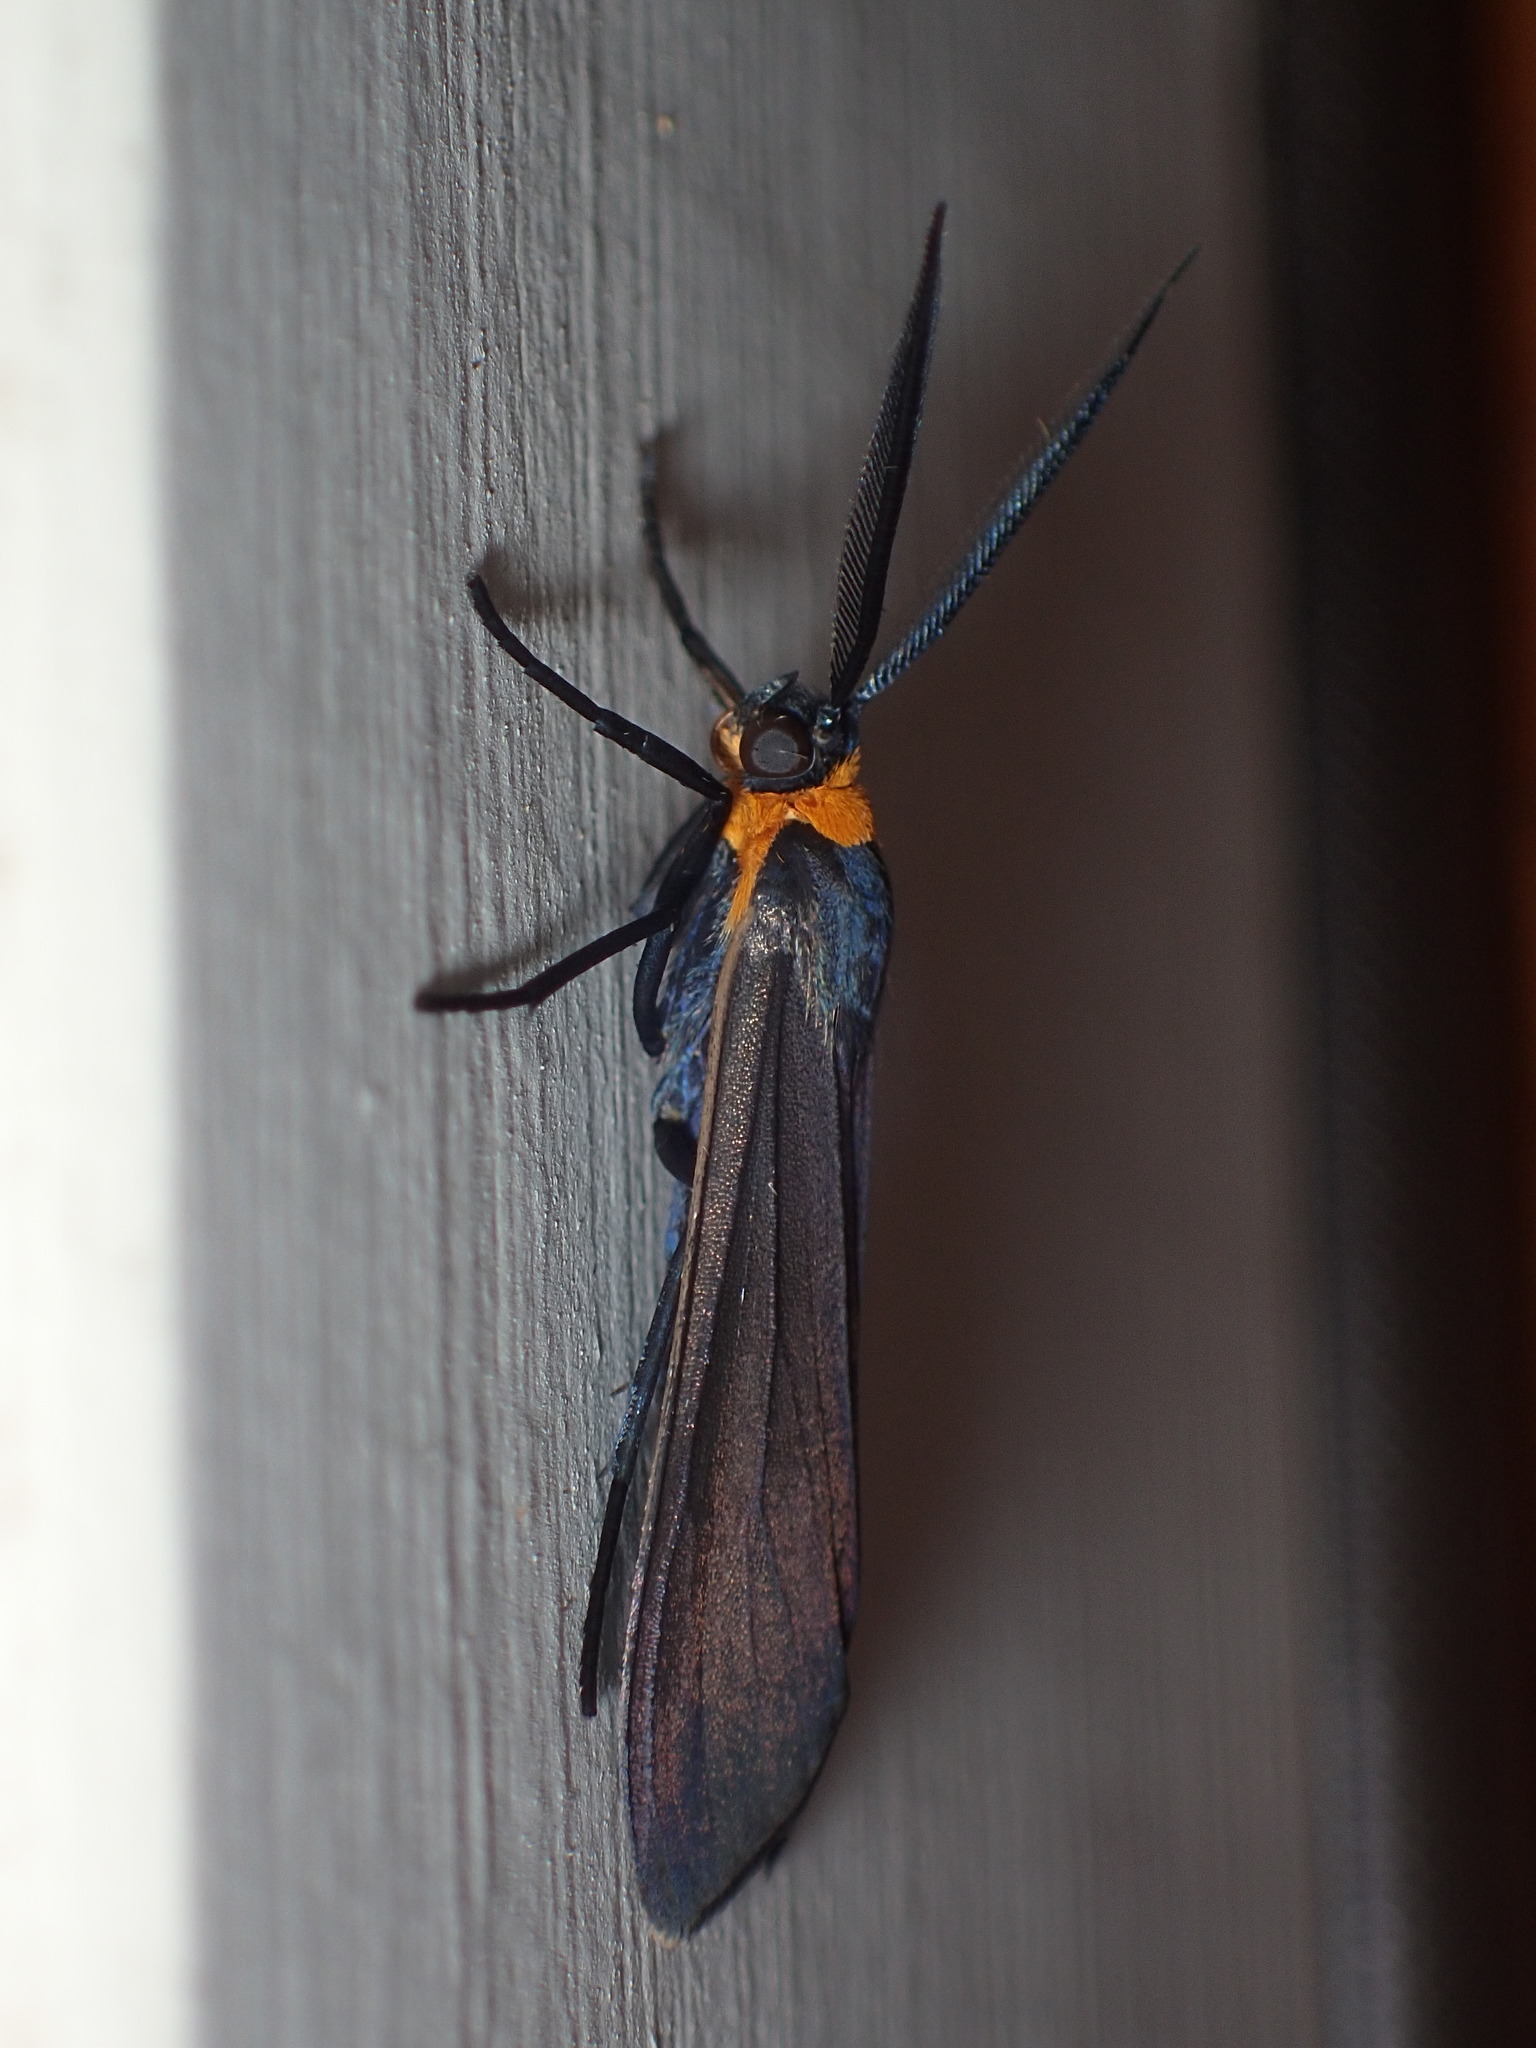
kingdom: Animalia
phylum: Arthropoda
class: Insecta
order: Lepidoptera
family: Erebidae
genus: Cisseps
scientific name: Cisseps fulvicollis
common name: Yellow-collared scape moth
